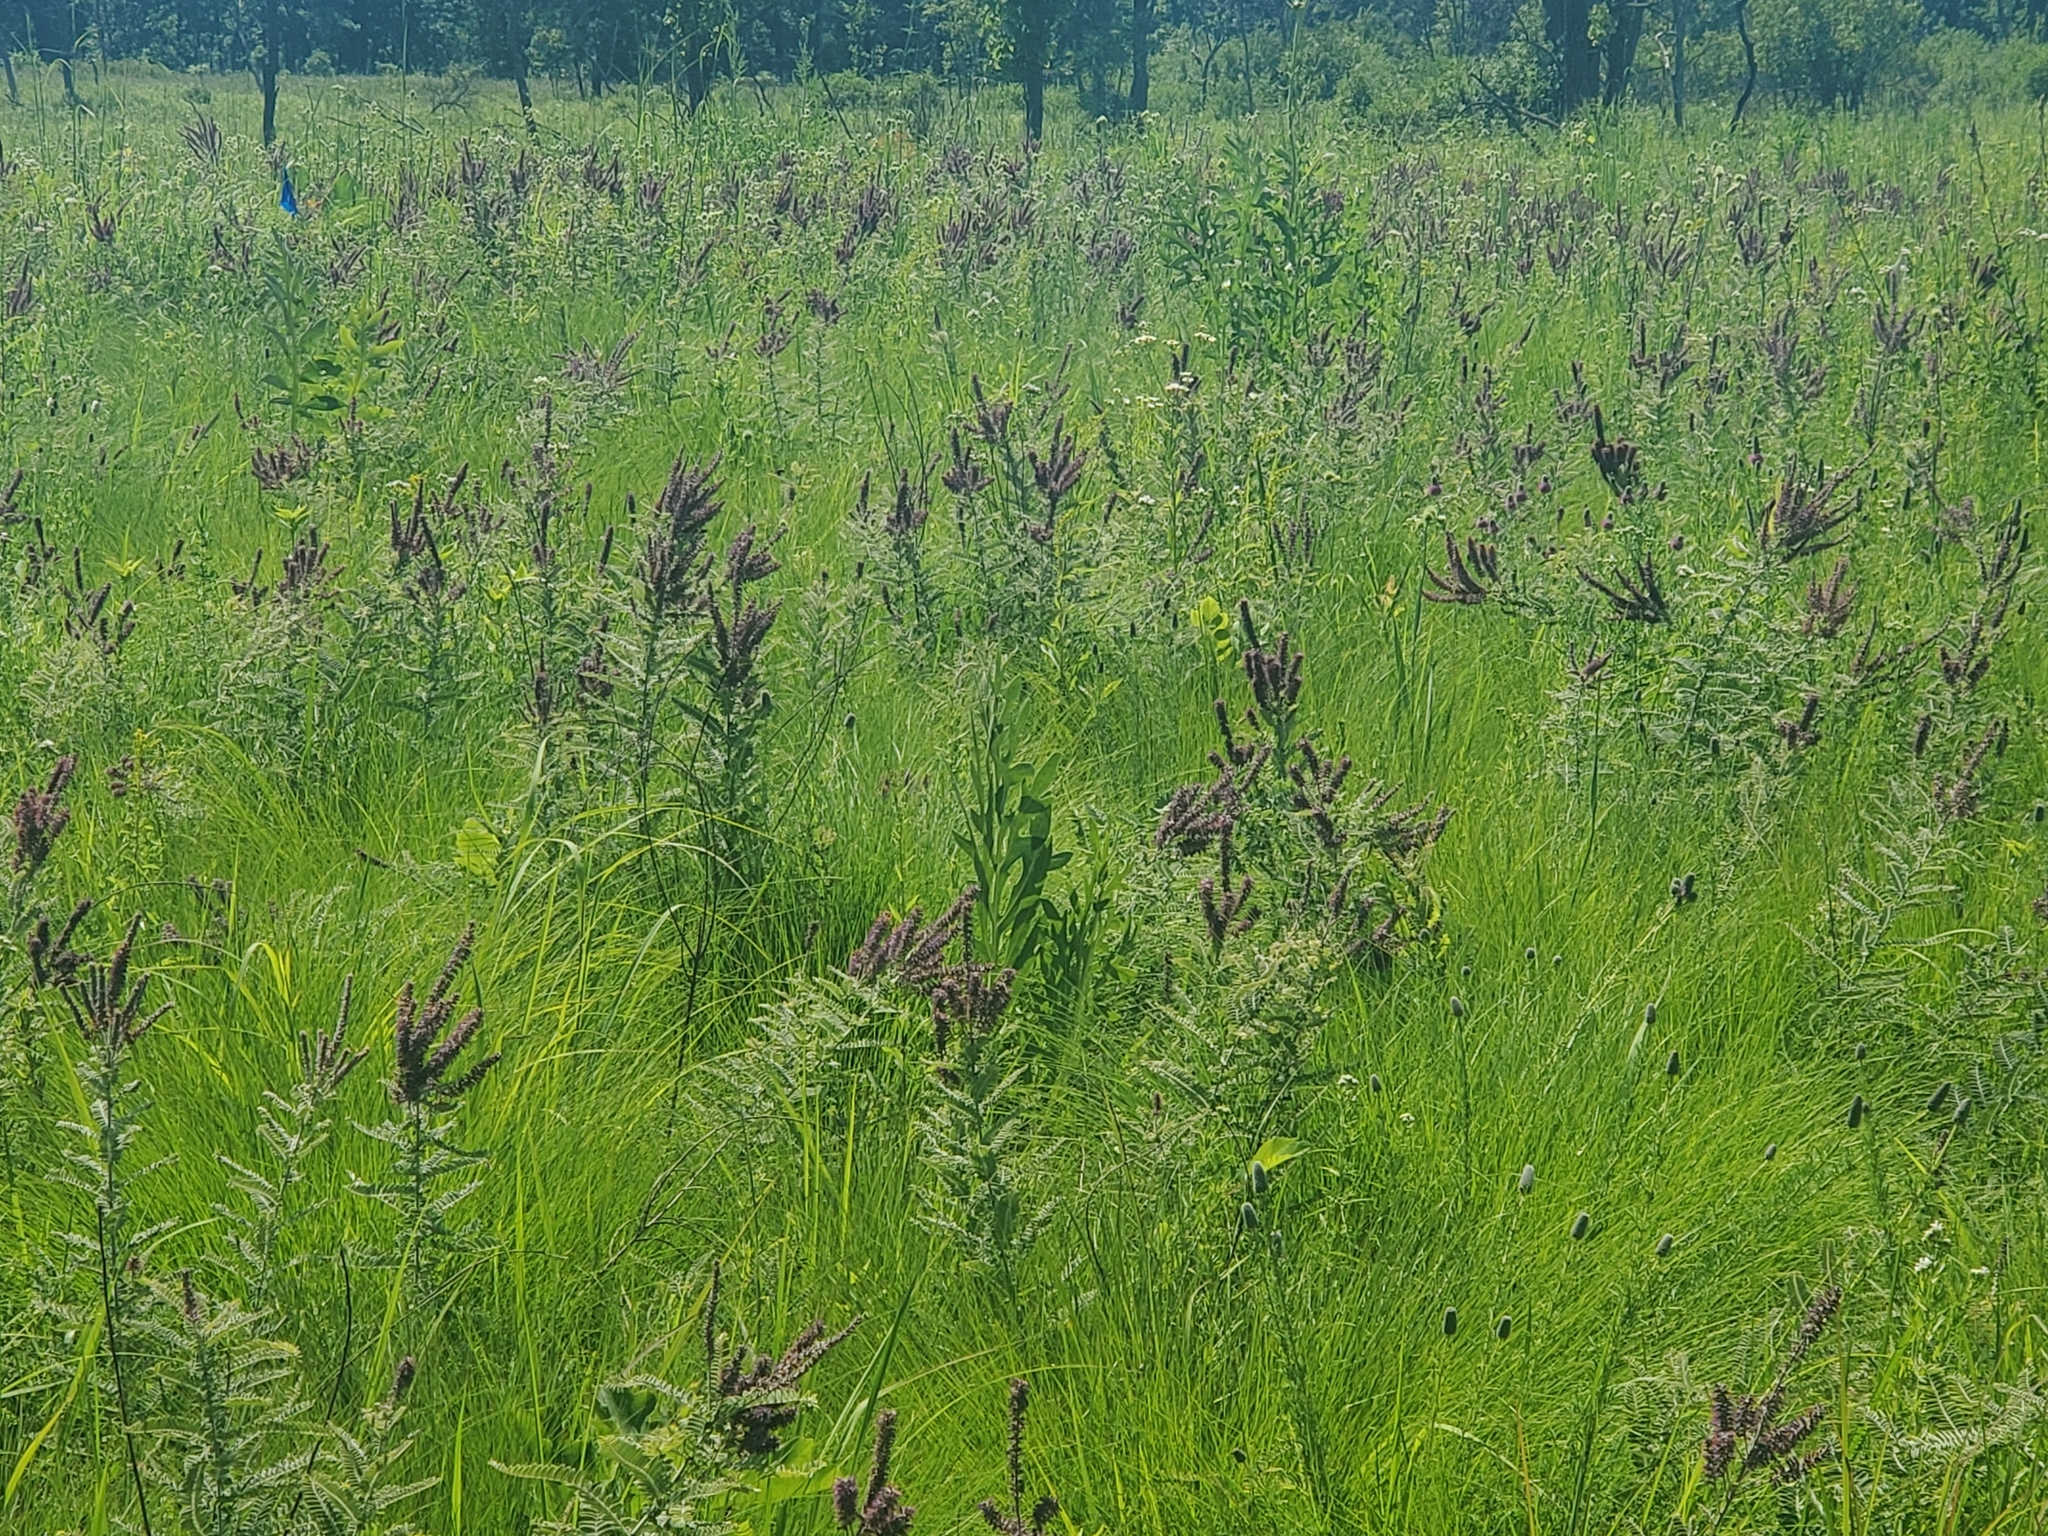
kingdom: Plantae
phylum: Tracheophyta
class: Magnoliopsida
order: Fabales
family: Fabaceae
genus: Amorpha
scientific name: Amorpha canescens
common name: Leadplant
